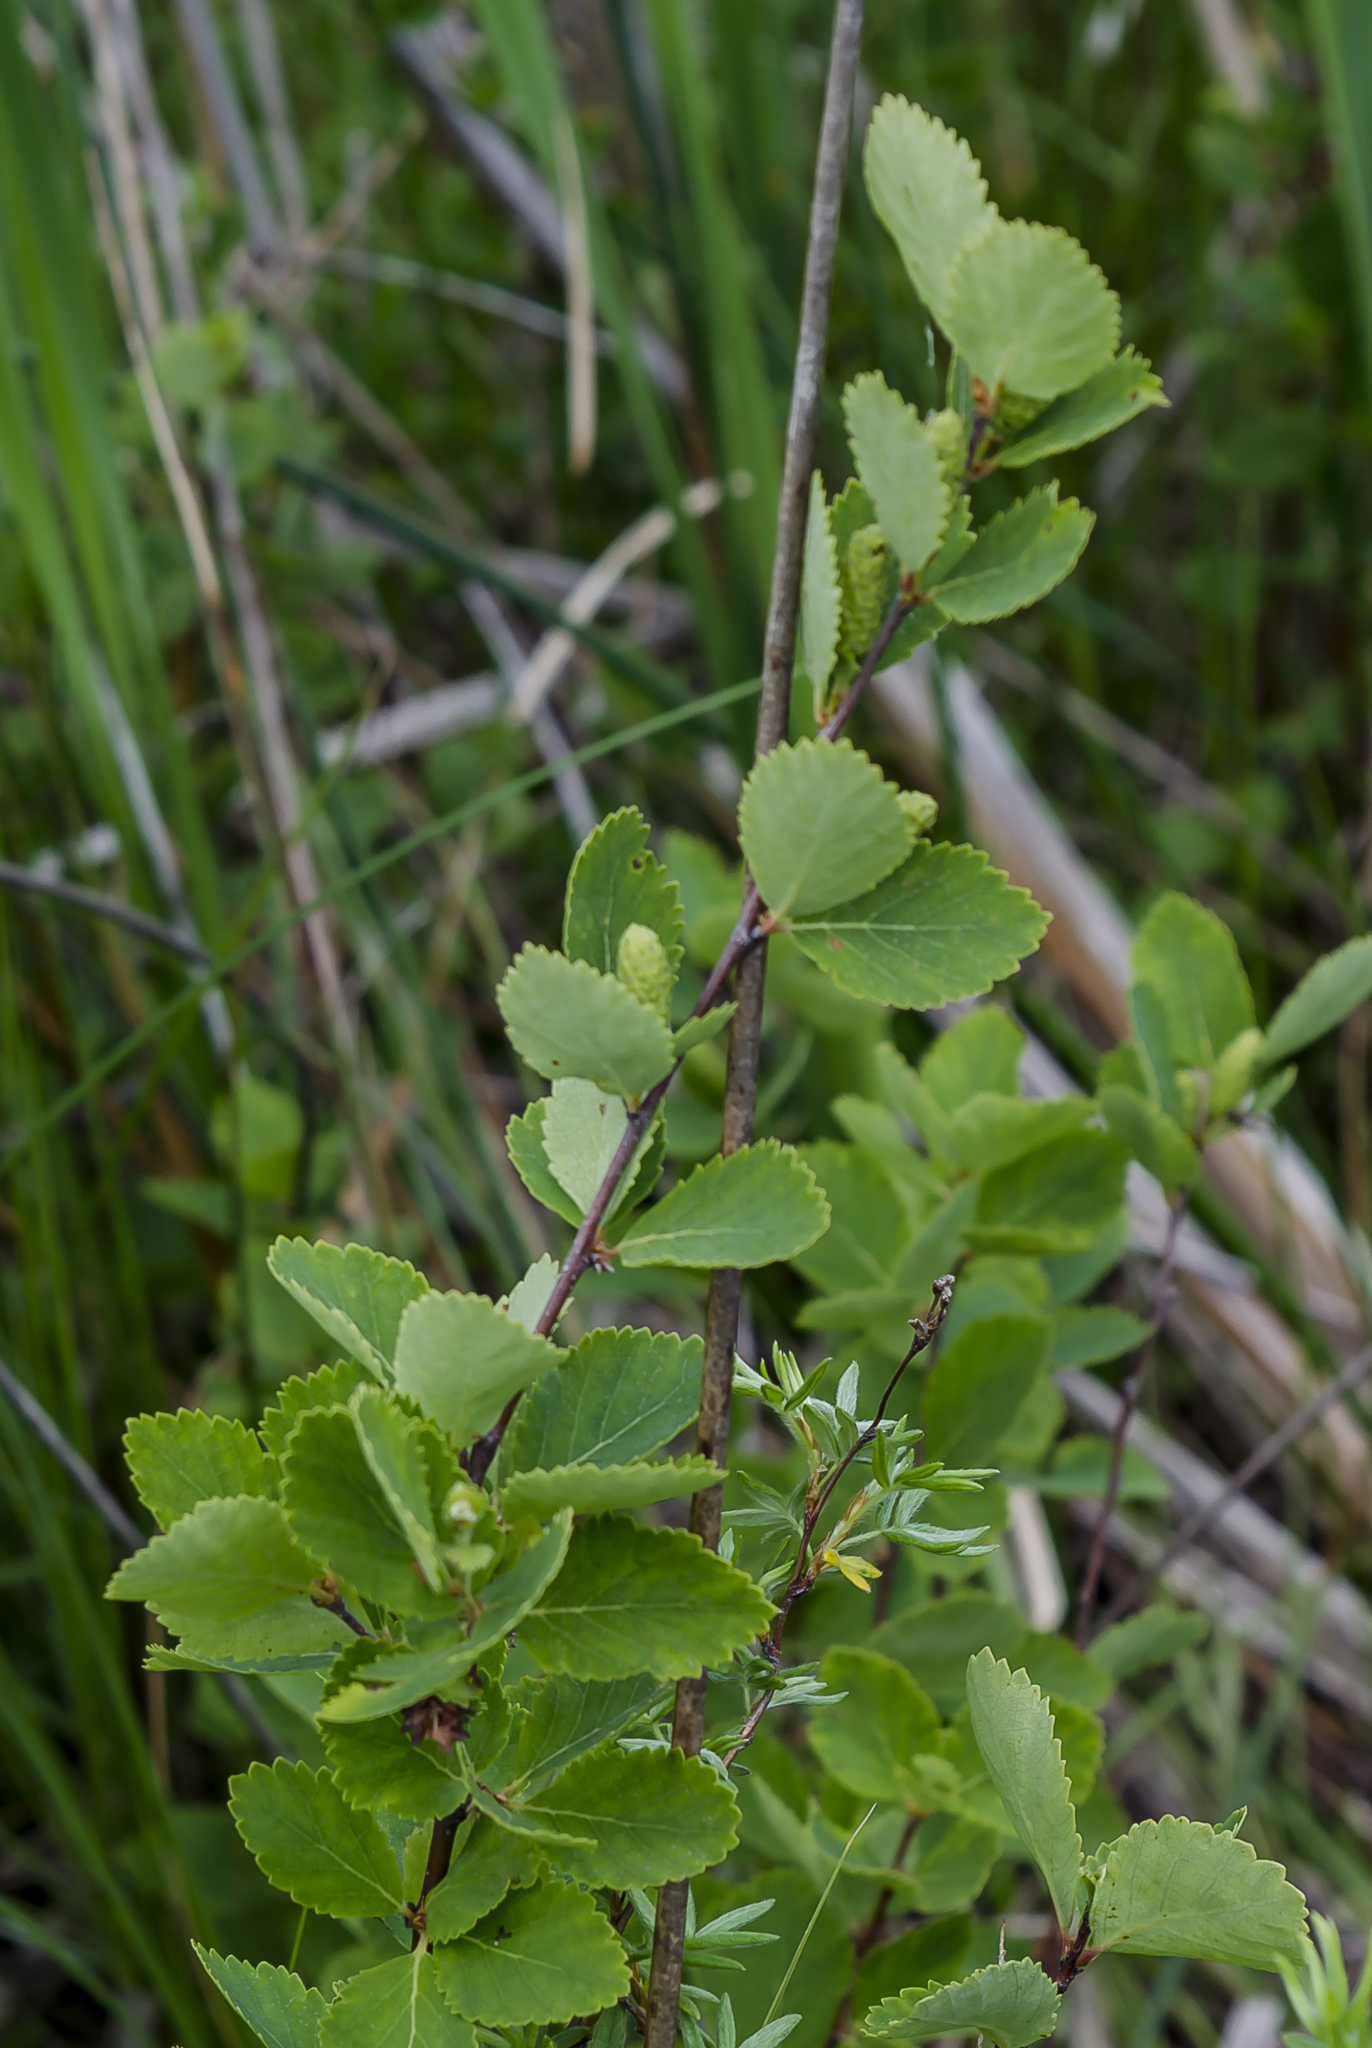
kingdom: Plantae
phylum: Tracheophyta
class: Magnoliopsida
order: Fagales
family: Betulaceae
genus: Betula
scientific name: Betula pumila
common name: Bog birch
